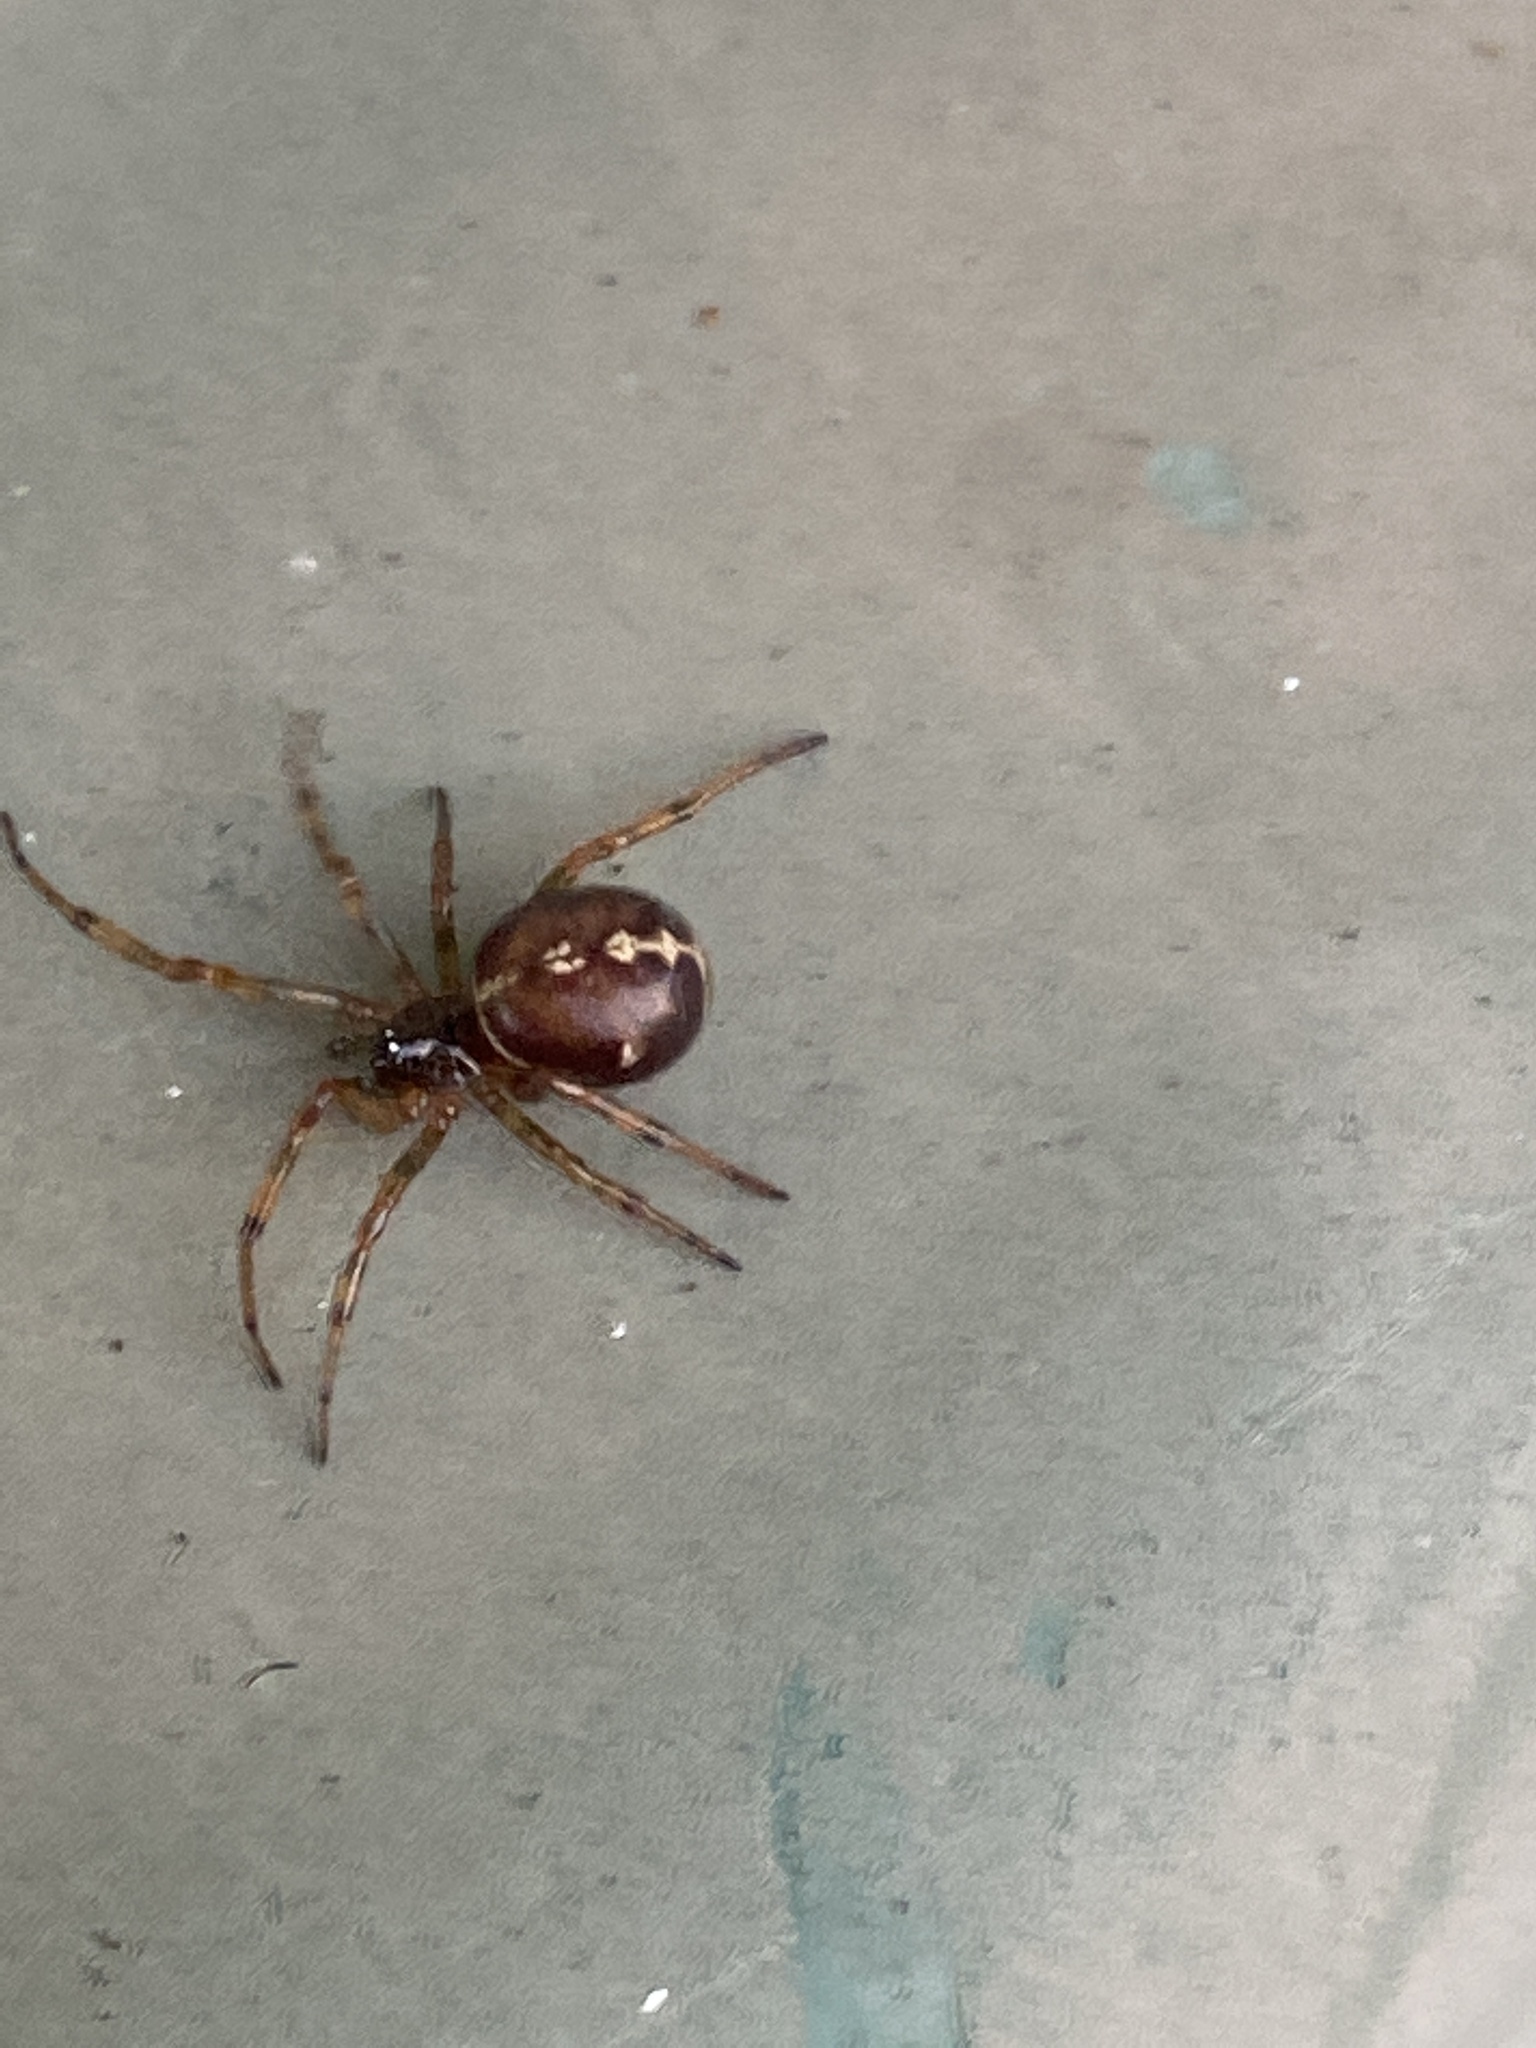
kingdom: Animalia
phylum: Arthropoda
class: Arachnida
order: Araneae
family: Theridiidae
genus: Steatoda
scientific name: Steatoda bipunctata
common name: False widow
